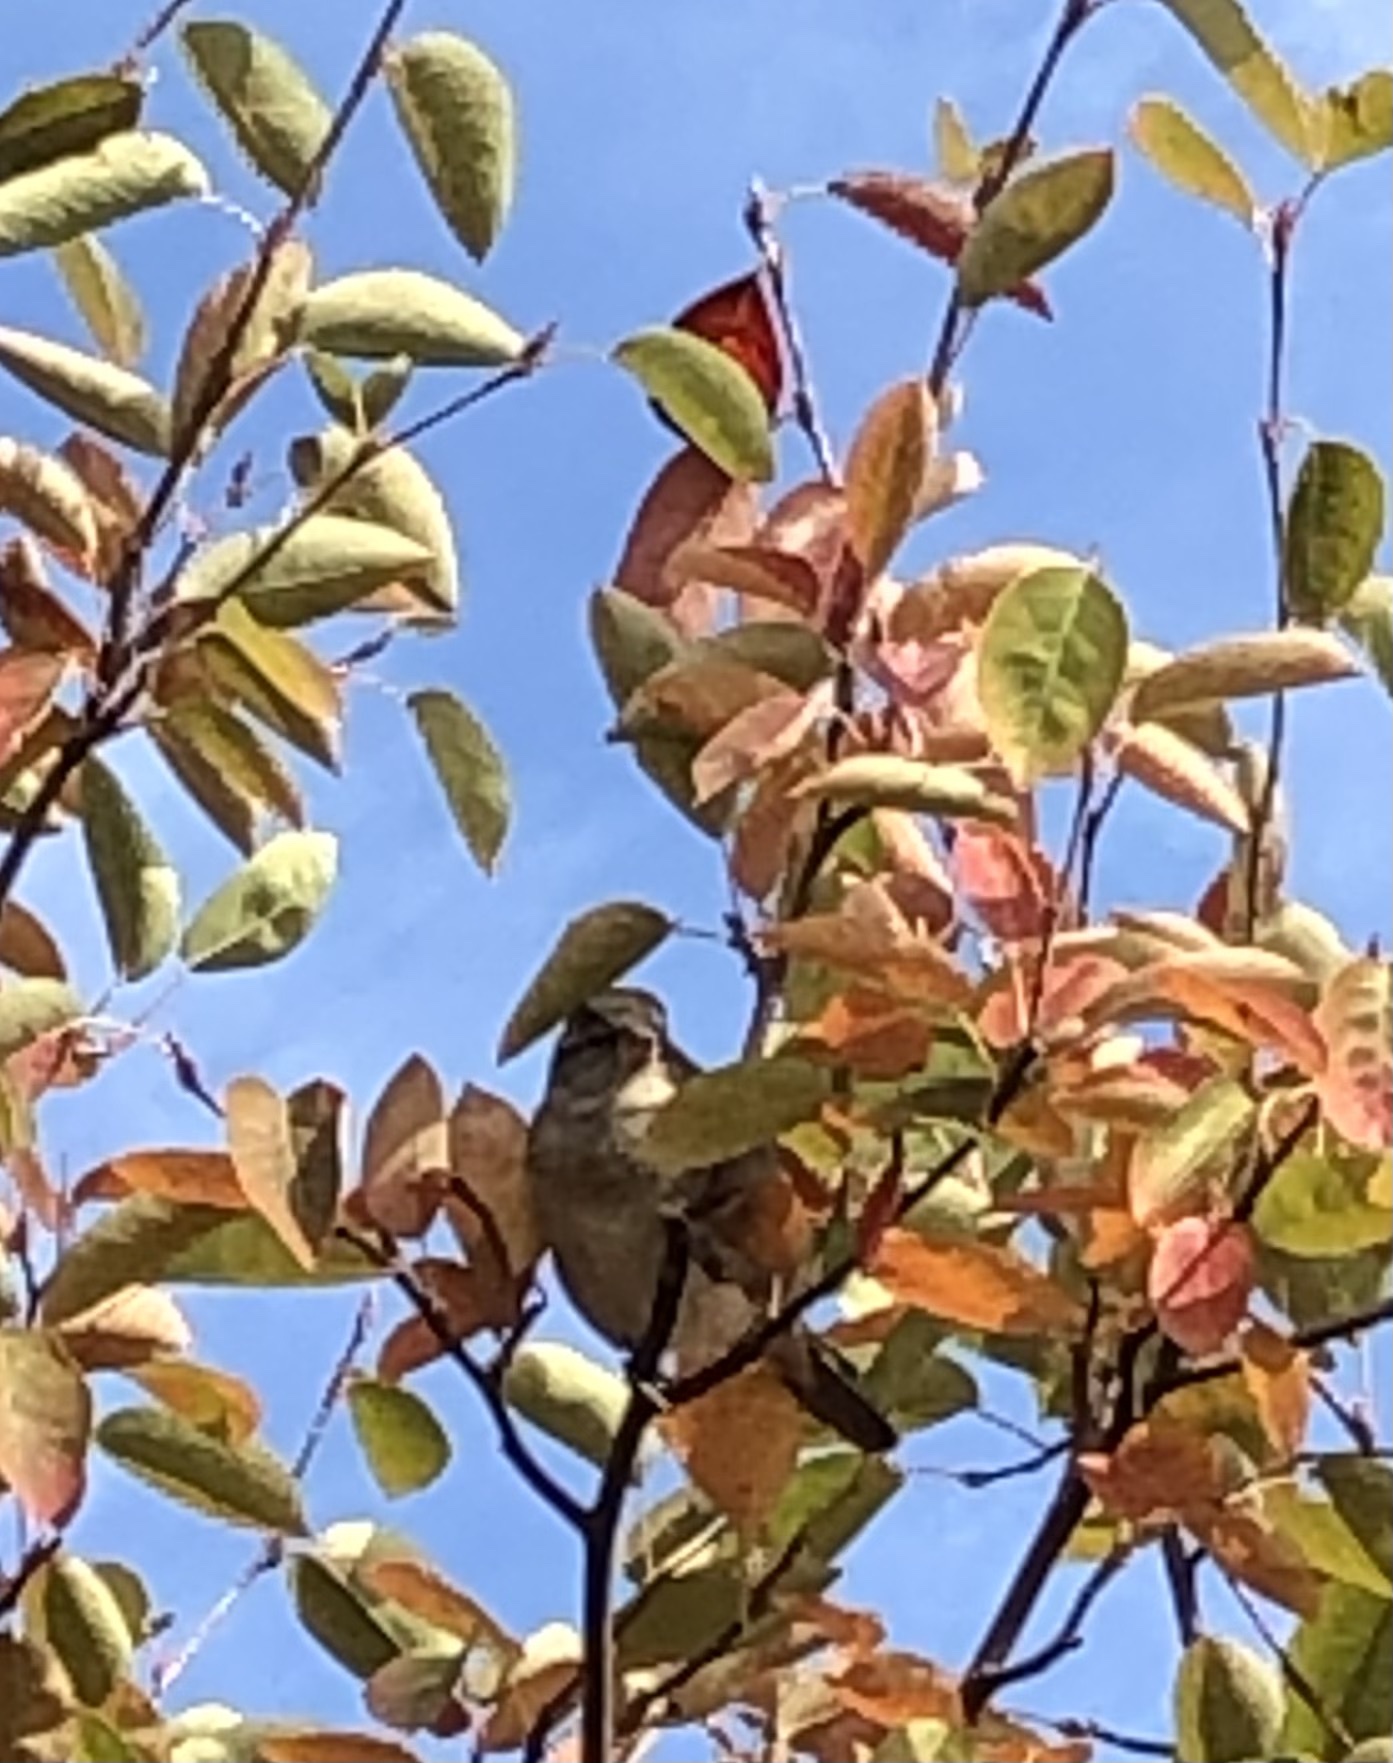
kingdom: Animalia
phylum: Chordata
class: Aves
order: Passeriformes
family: Passeridae
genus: Passer
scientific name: Passer domesticus
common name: House sparrow
